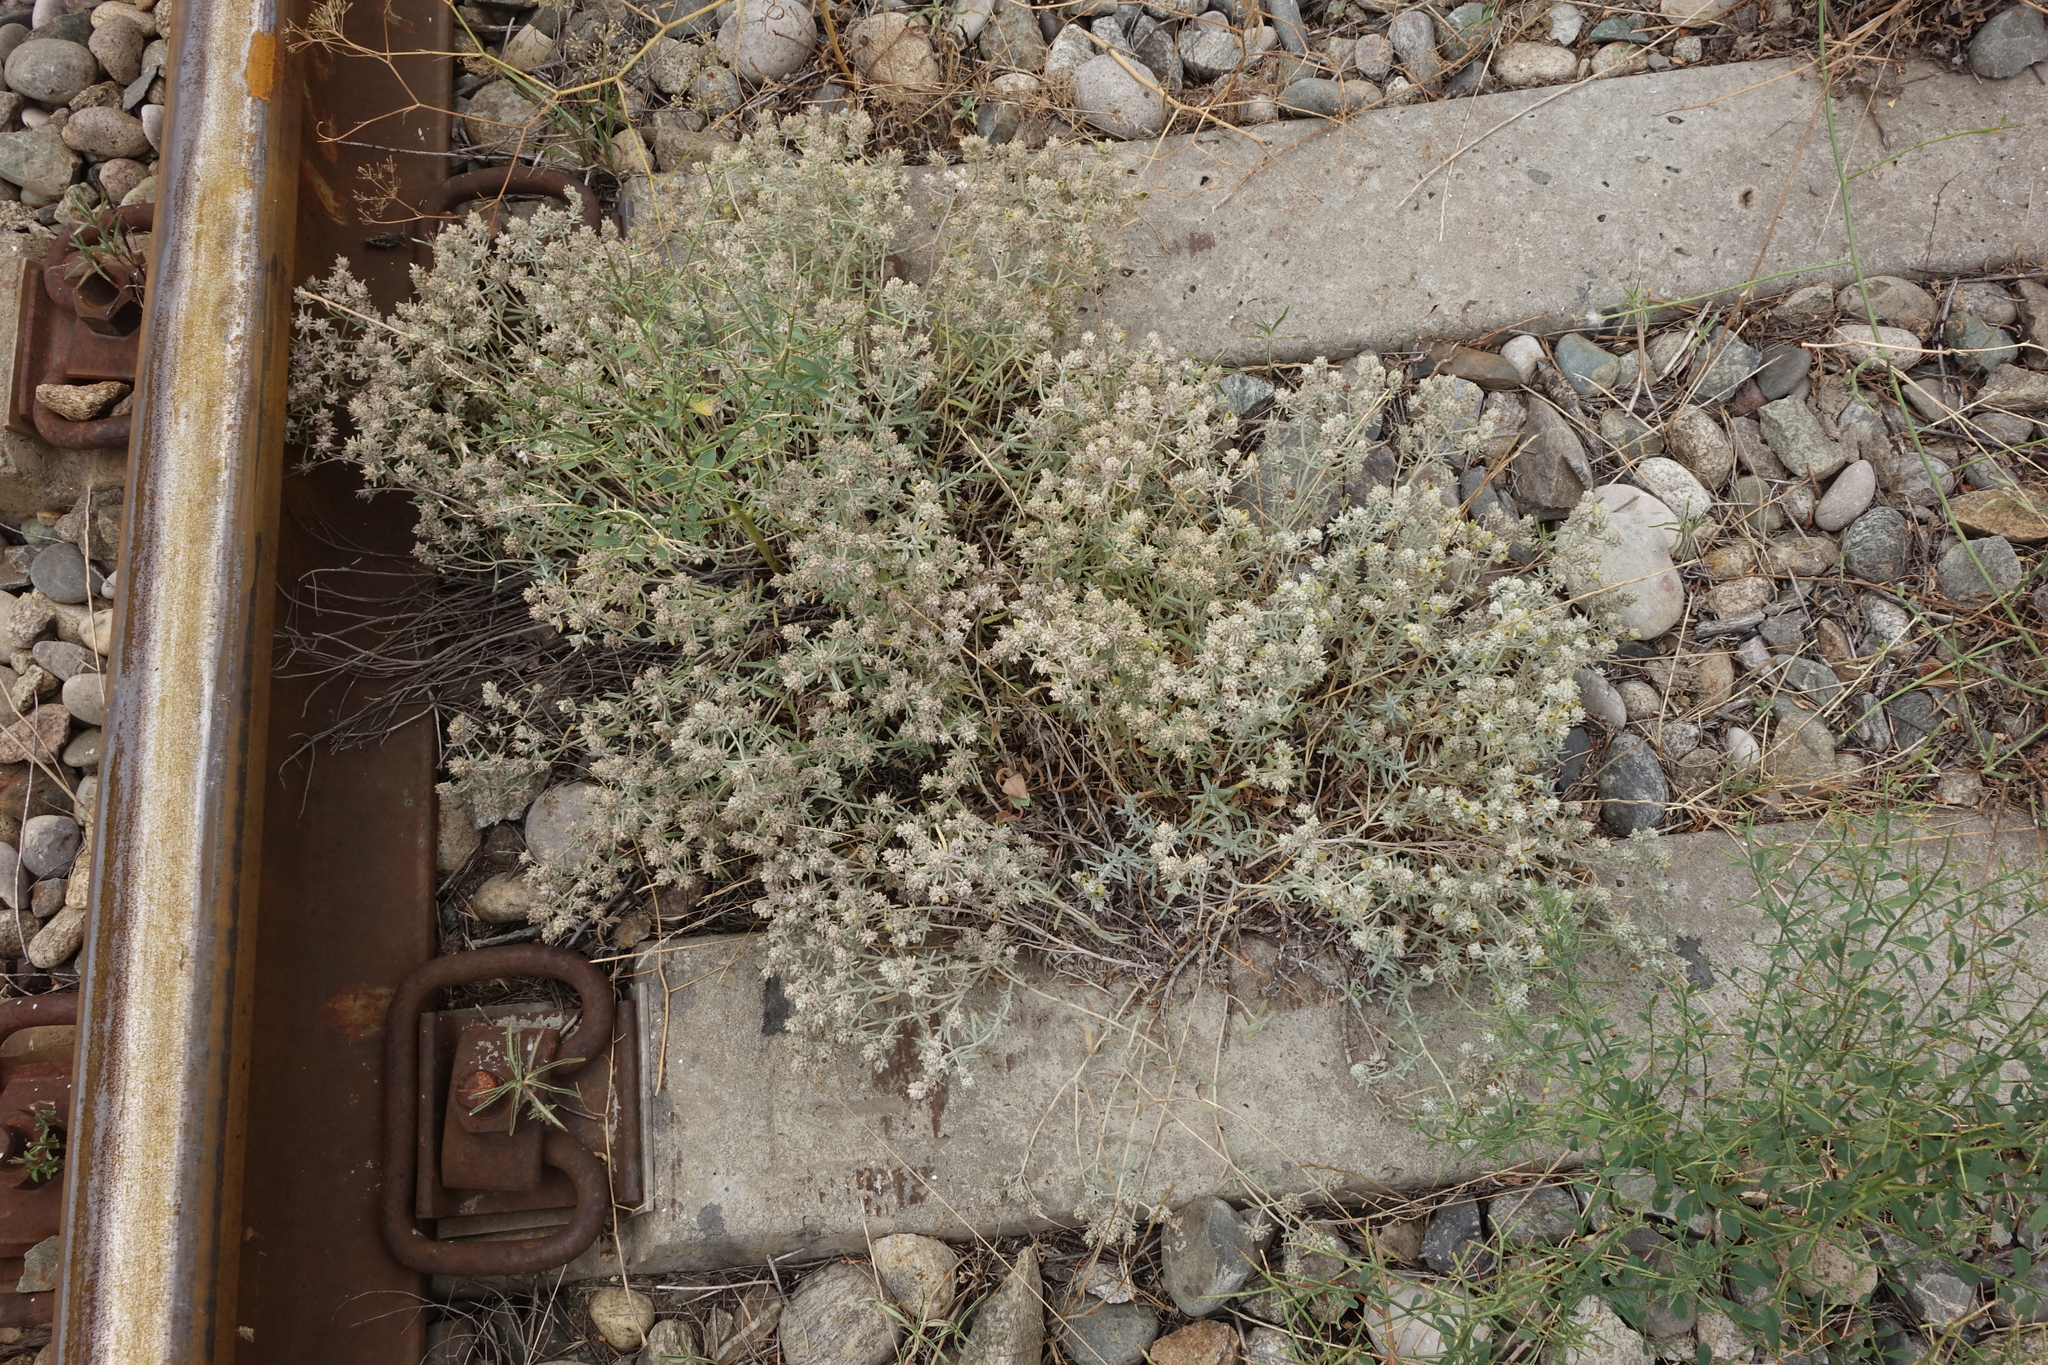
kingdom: Plantae
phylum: Tracheophyta
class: Magnoliopsida
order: Lamiales
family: Lamiaceae
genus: Teucrium
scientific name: Teucrium polium
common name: Poley
